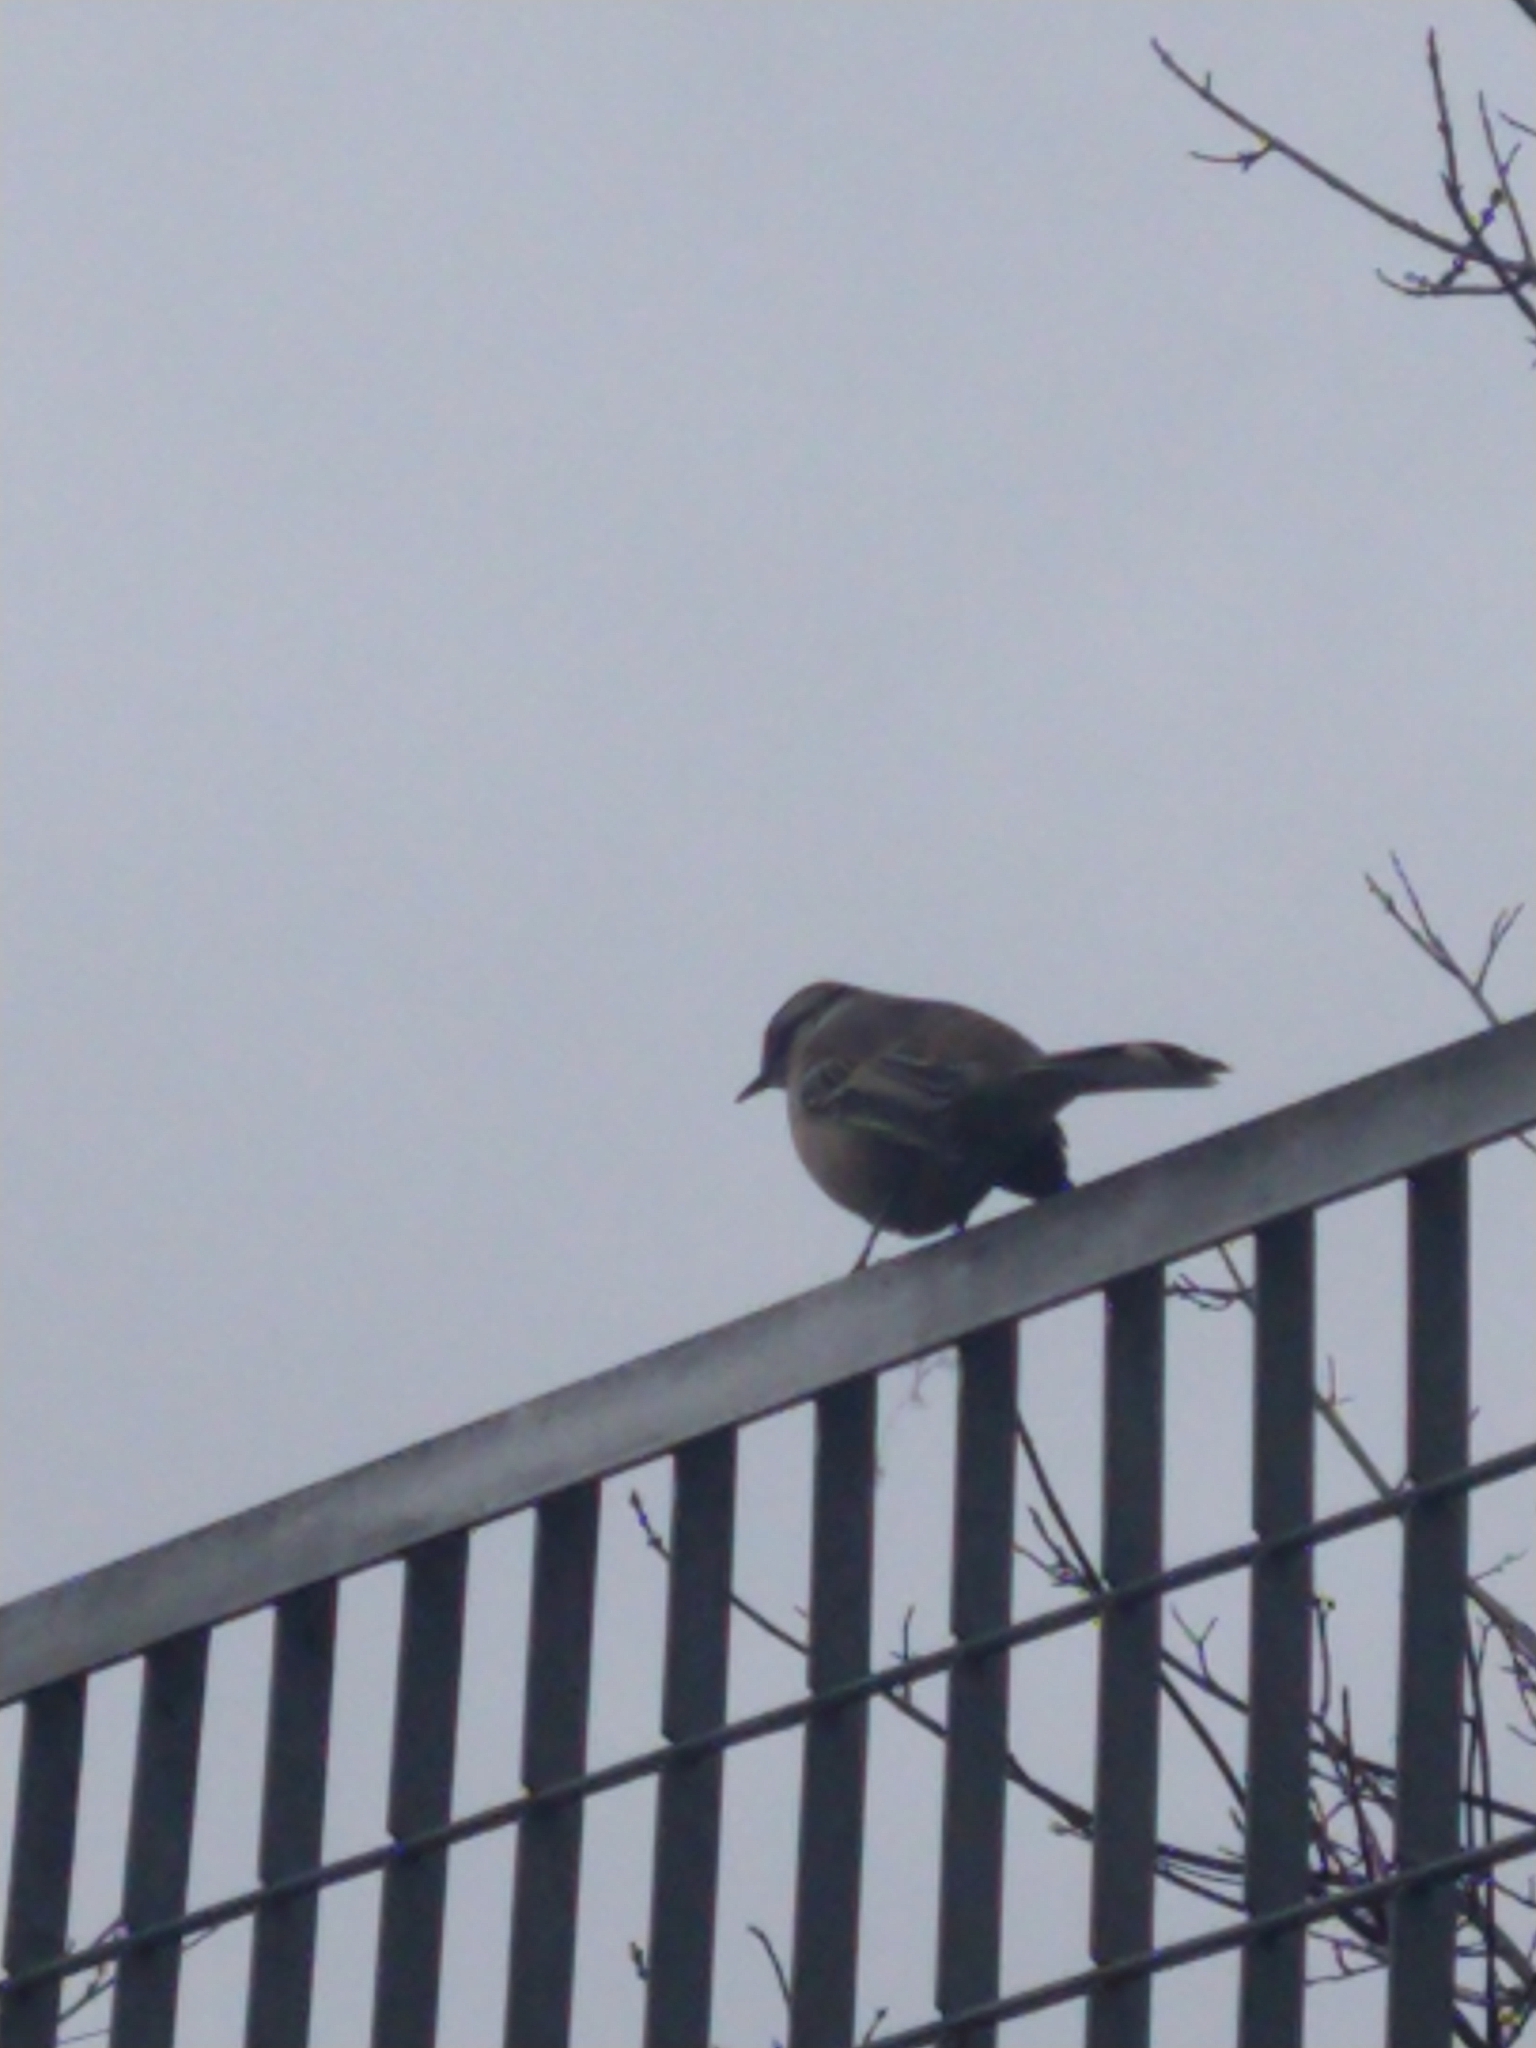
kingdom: Animalia
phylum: Chordata
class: Aves
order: Passeriformes
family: Mimidae
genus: Mimus
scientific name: Mimus saturninus
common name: Chalk-browed mockingbird
